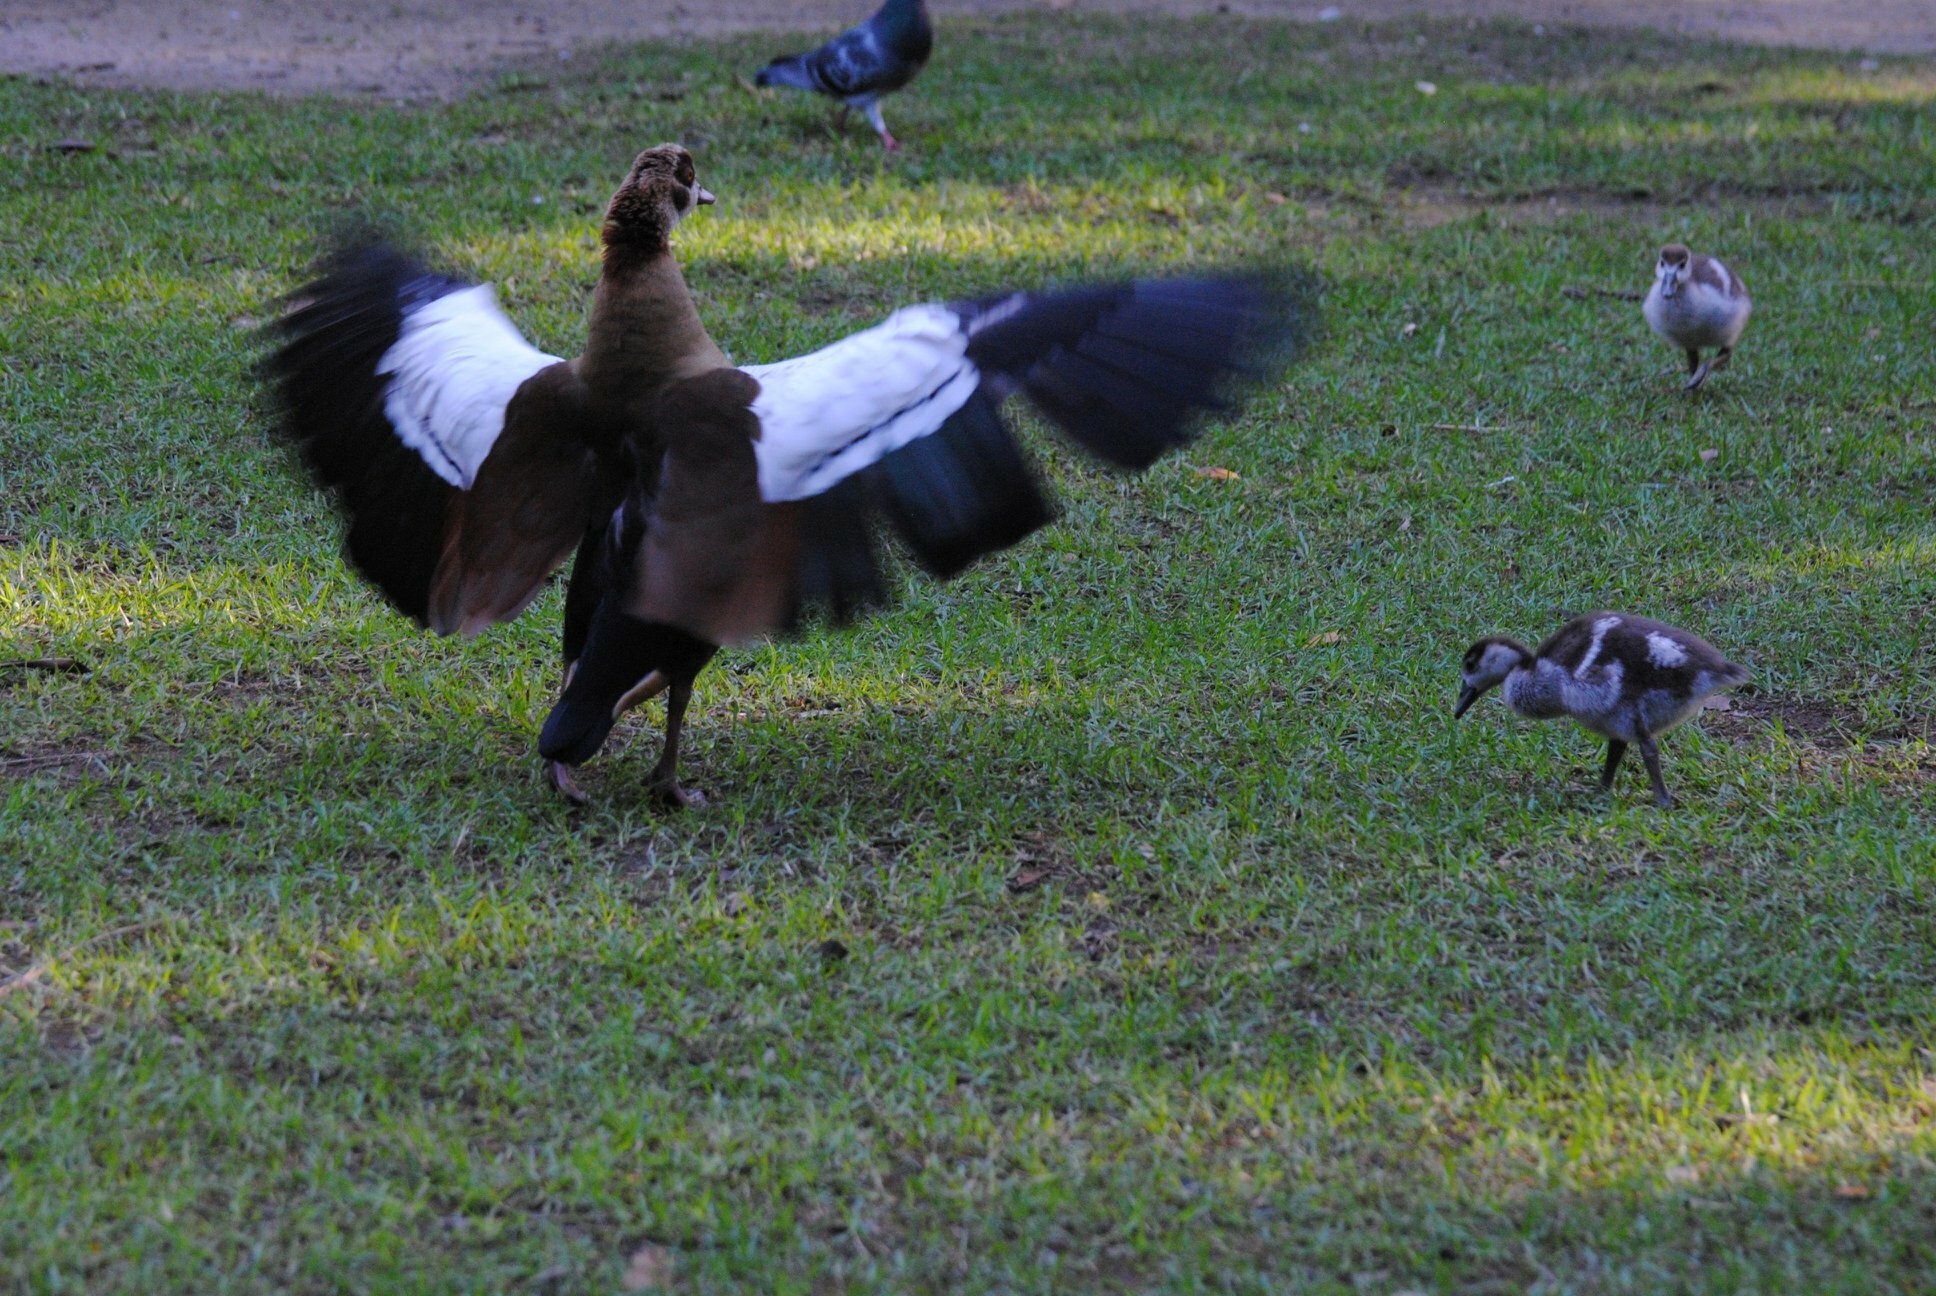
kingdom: Animalia
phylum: Chordata
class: Aves
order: Anseriformes
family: Anatidae
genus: Alopochen
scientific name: Alopochen aegyptiaca
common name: Egyptian goose
